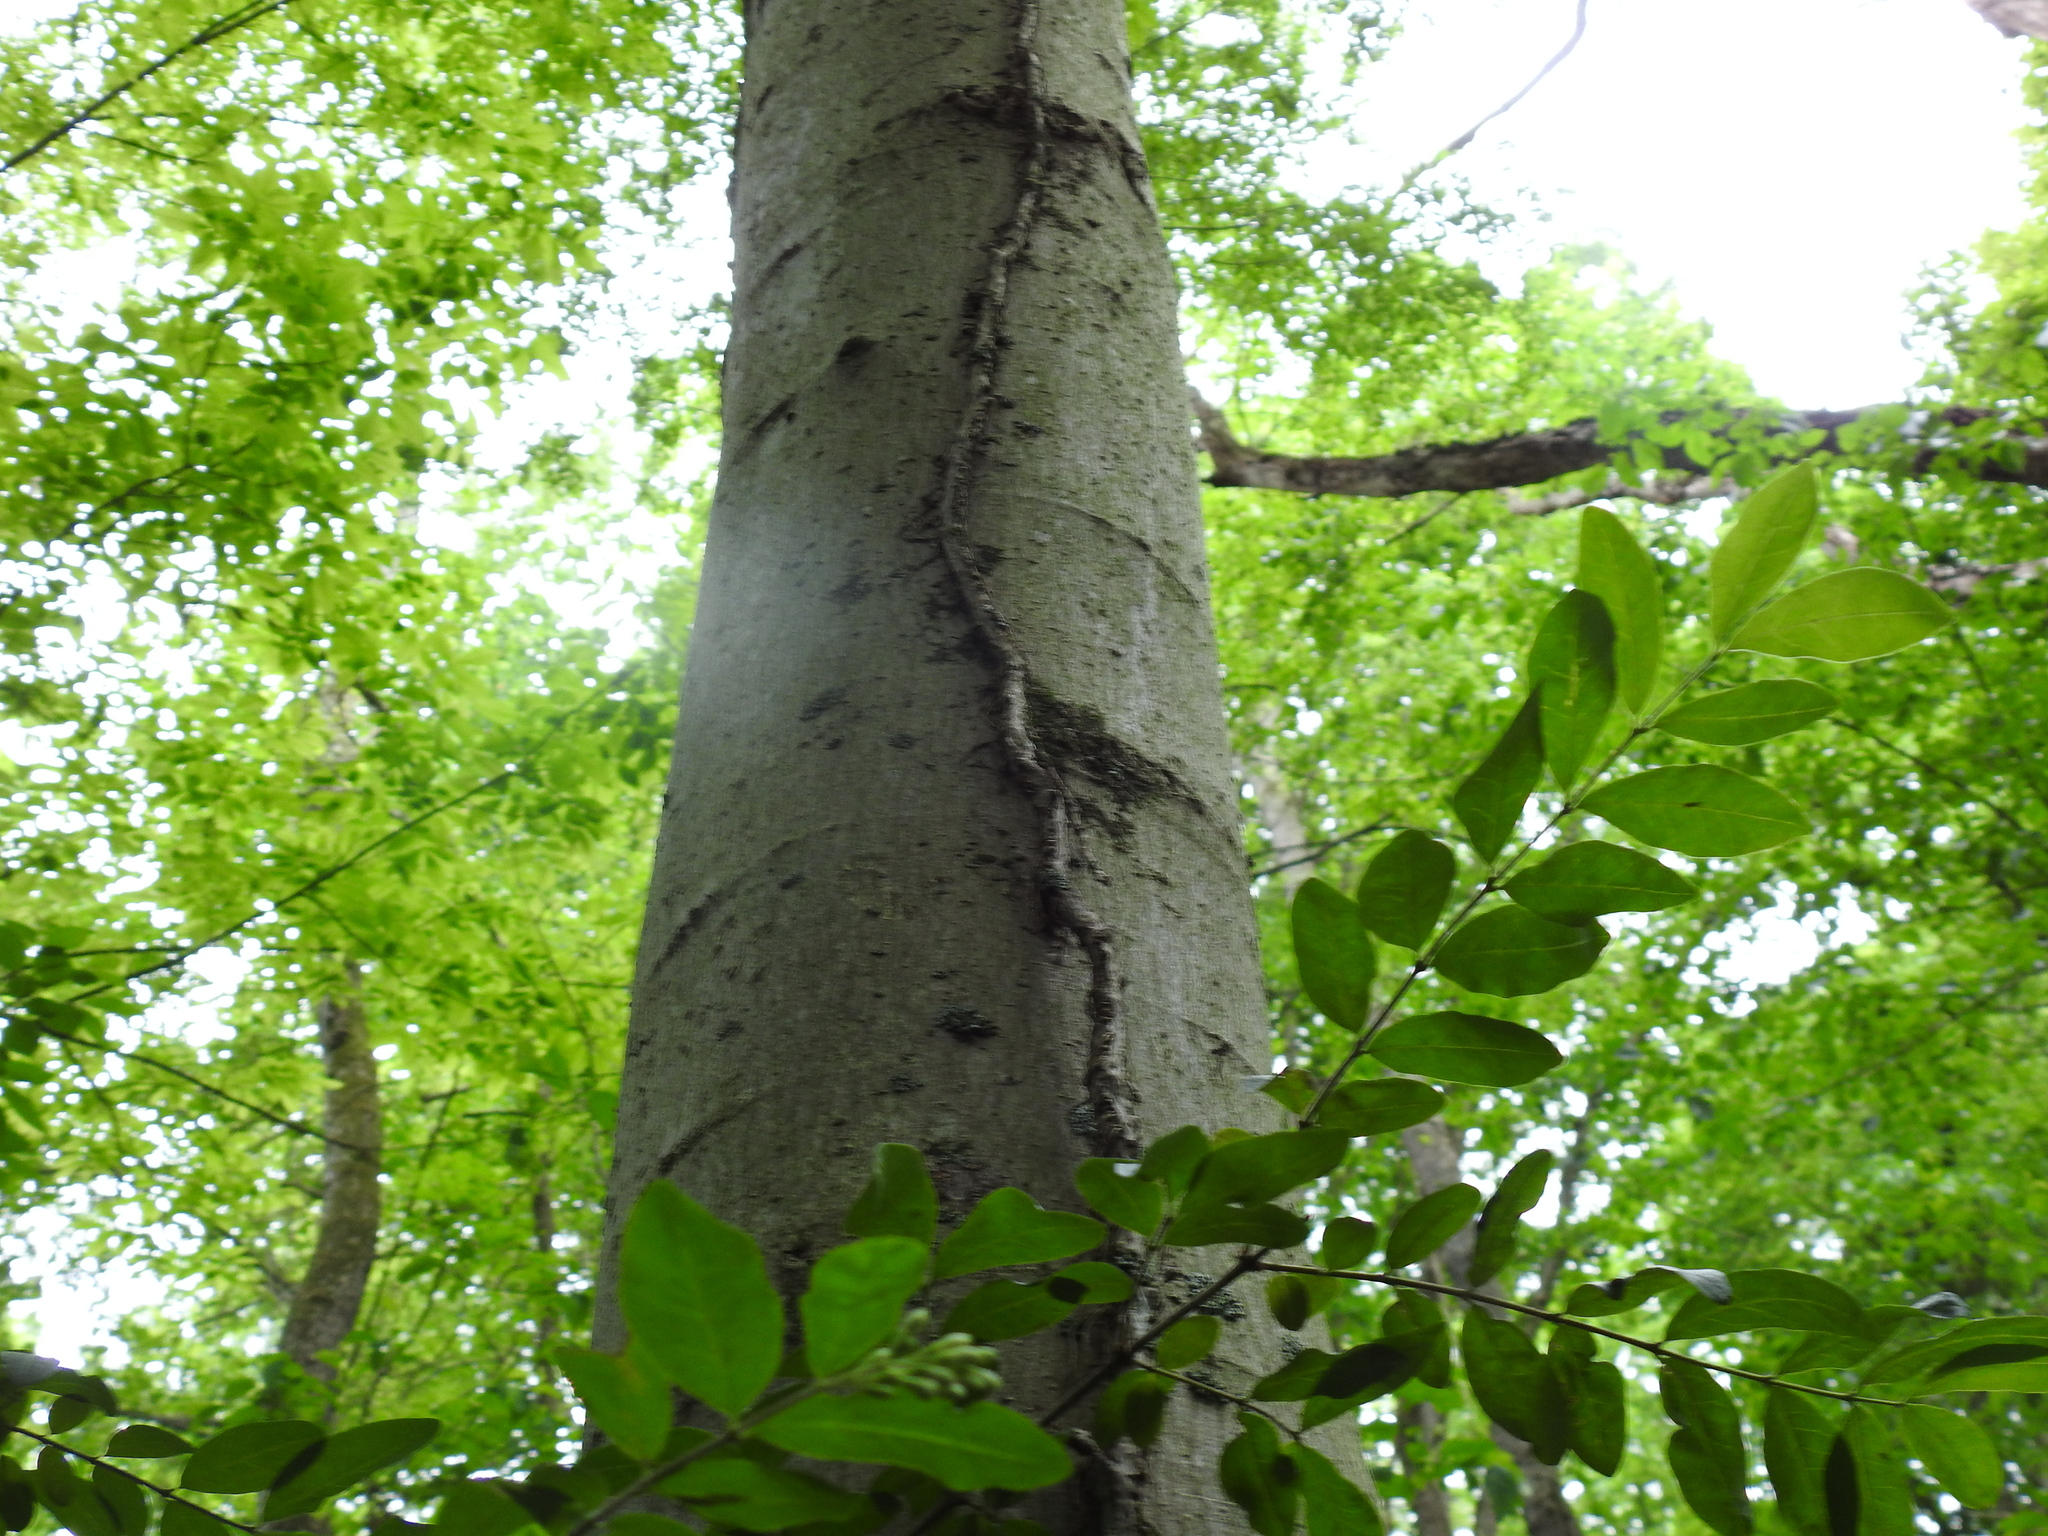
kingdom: Plantae
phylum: Tracheophyta
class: Magnoliopsida
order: Sapindales
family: Anacardiaceae
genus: Toxicodendron
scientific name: Toxicodendron radicans
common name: Poison ivy
